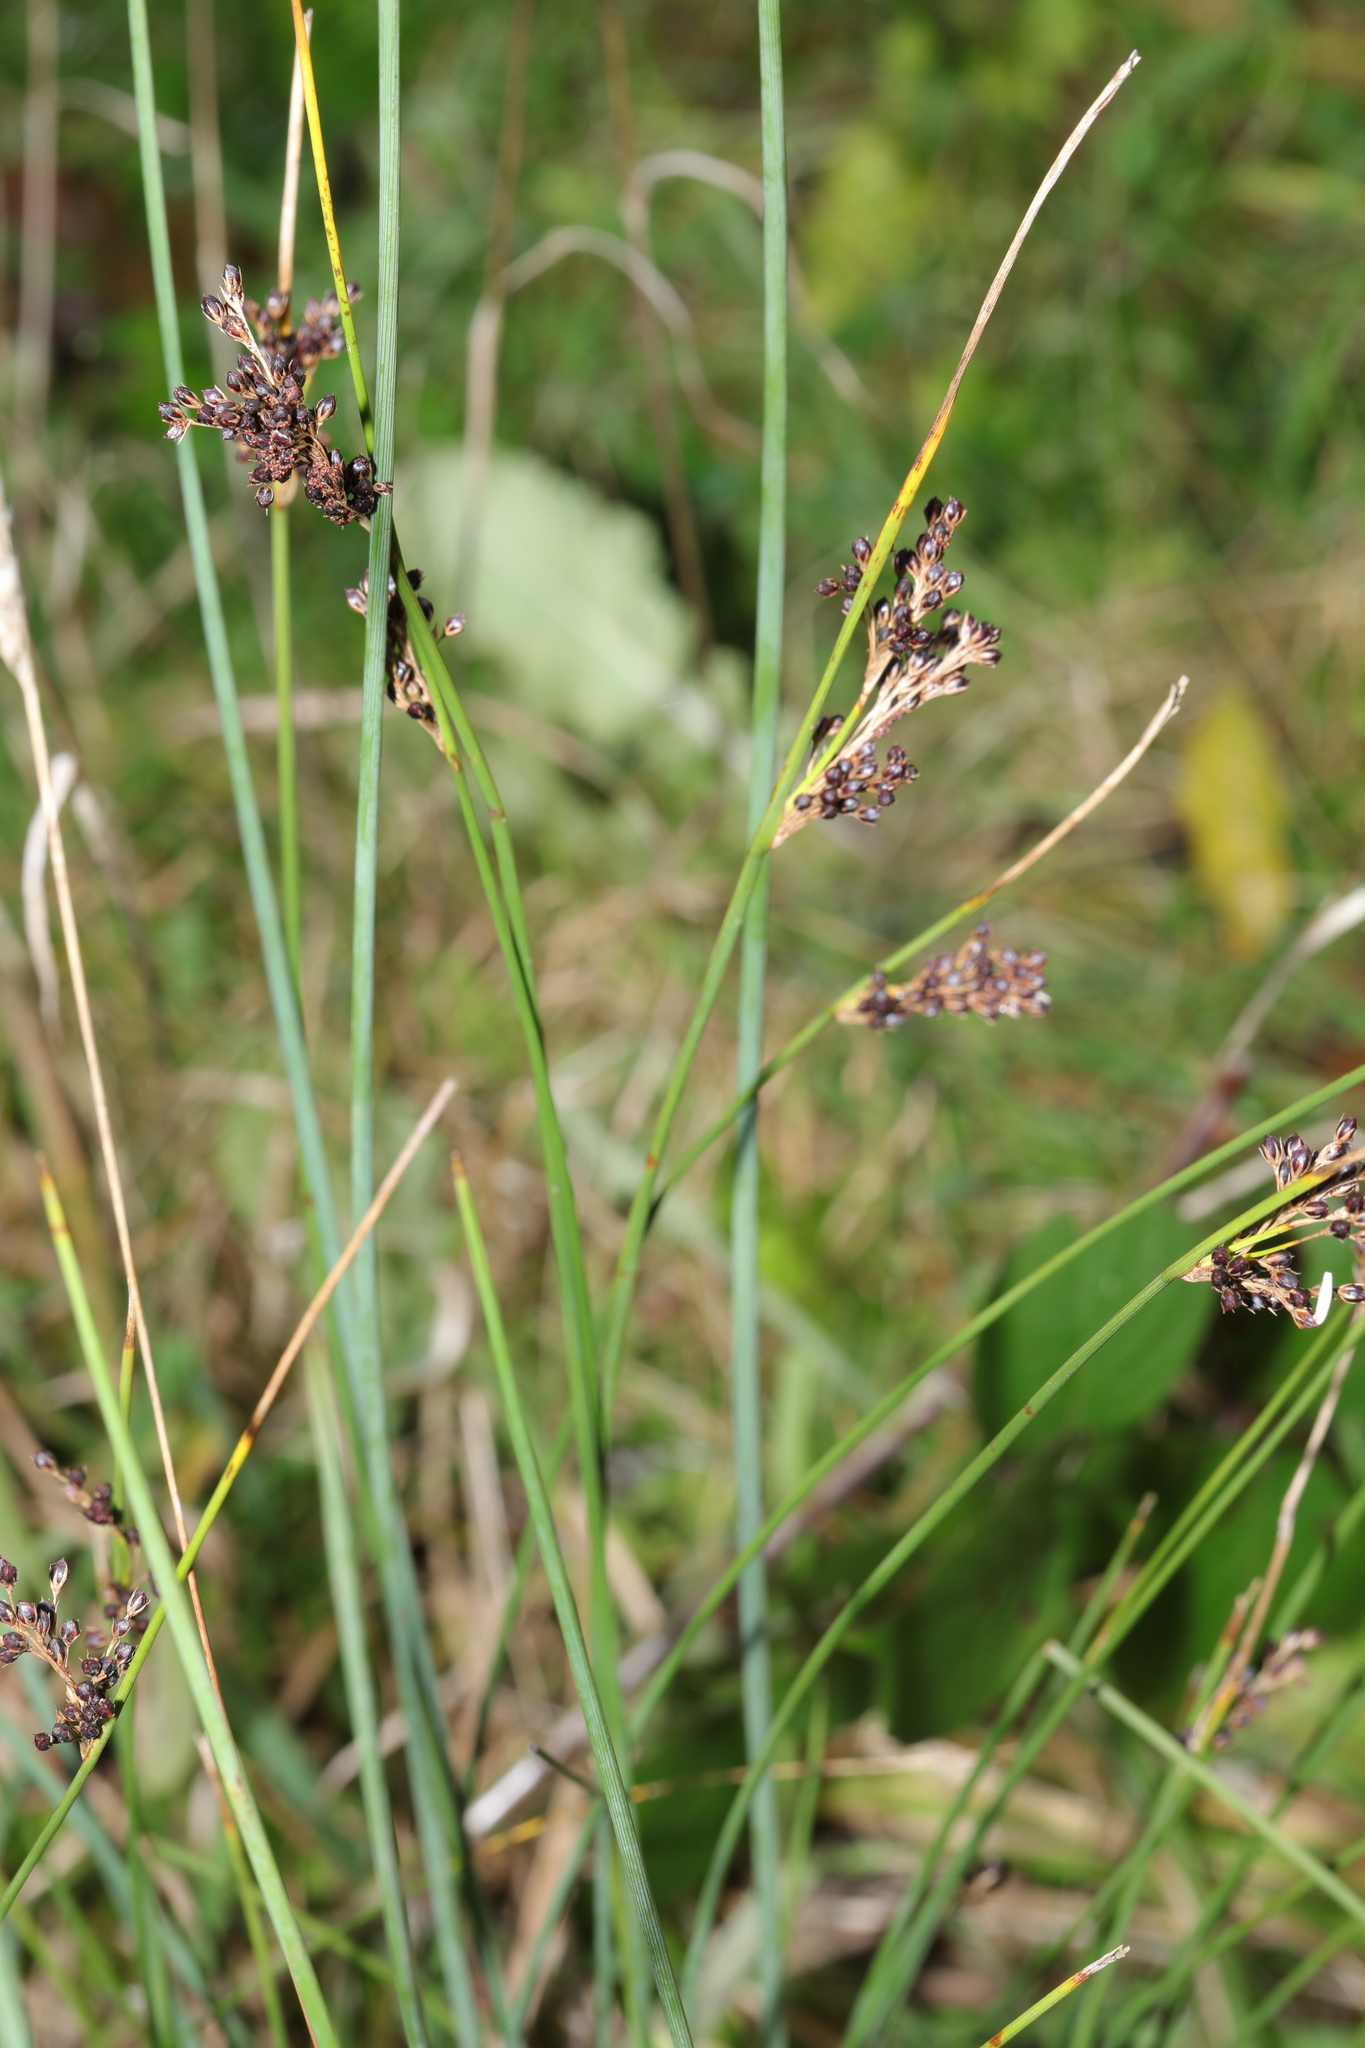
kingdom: Plantae
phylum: Tracheophyta
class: Liliopsida
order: Poales
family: Juncaceae
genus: Juncus
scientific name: Juncus inflexus
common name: Hard rush
